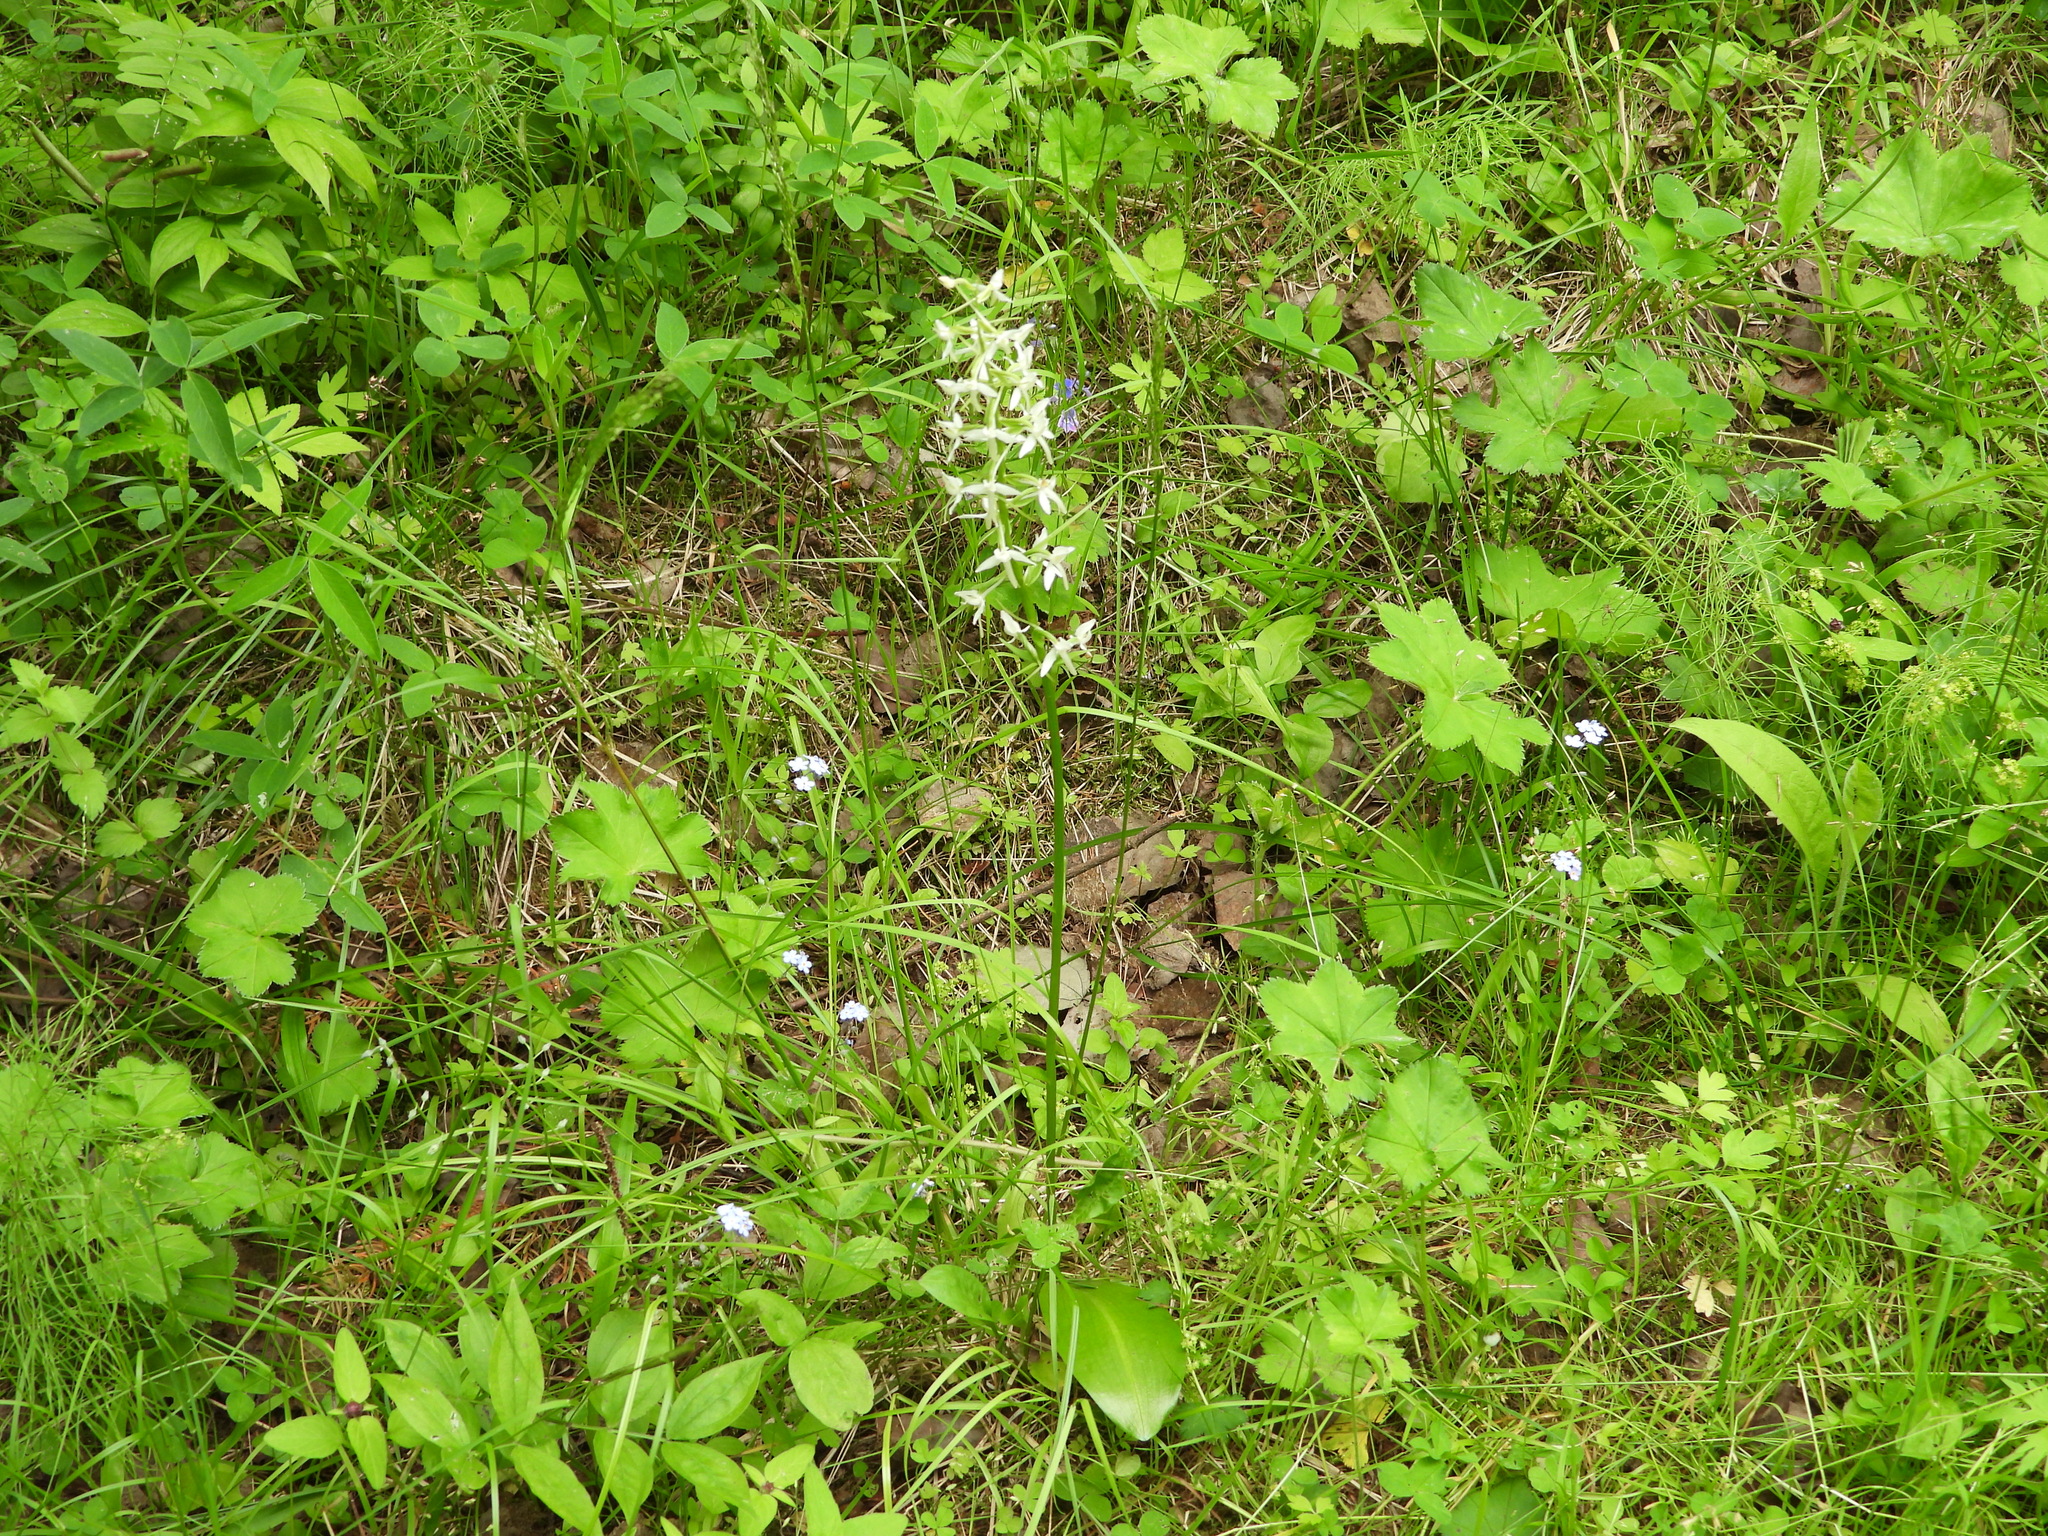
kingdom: Plantae
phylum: Tracheophyta
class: Liliopsida
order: Asparagales
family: Orchidaceae
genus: Platanthera
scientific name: Platanthera bifolia
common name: Lesser butterfly-orchid
